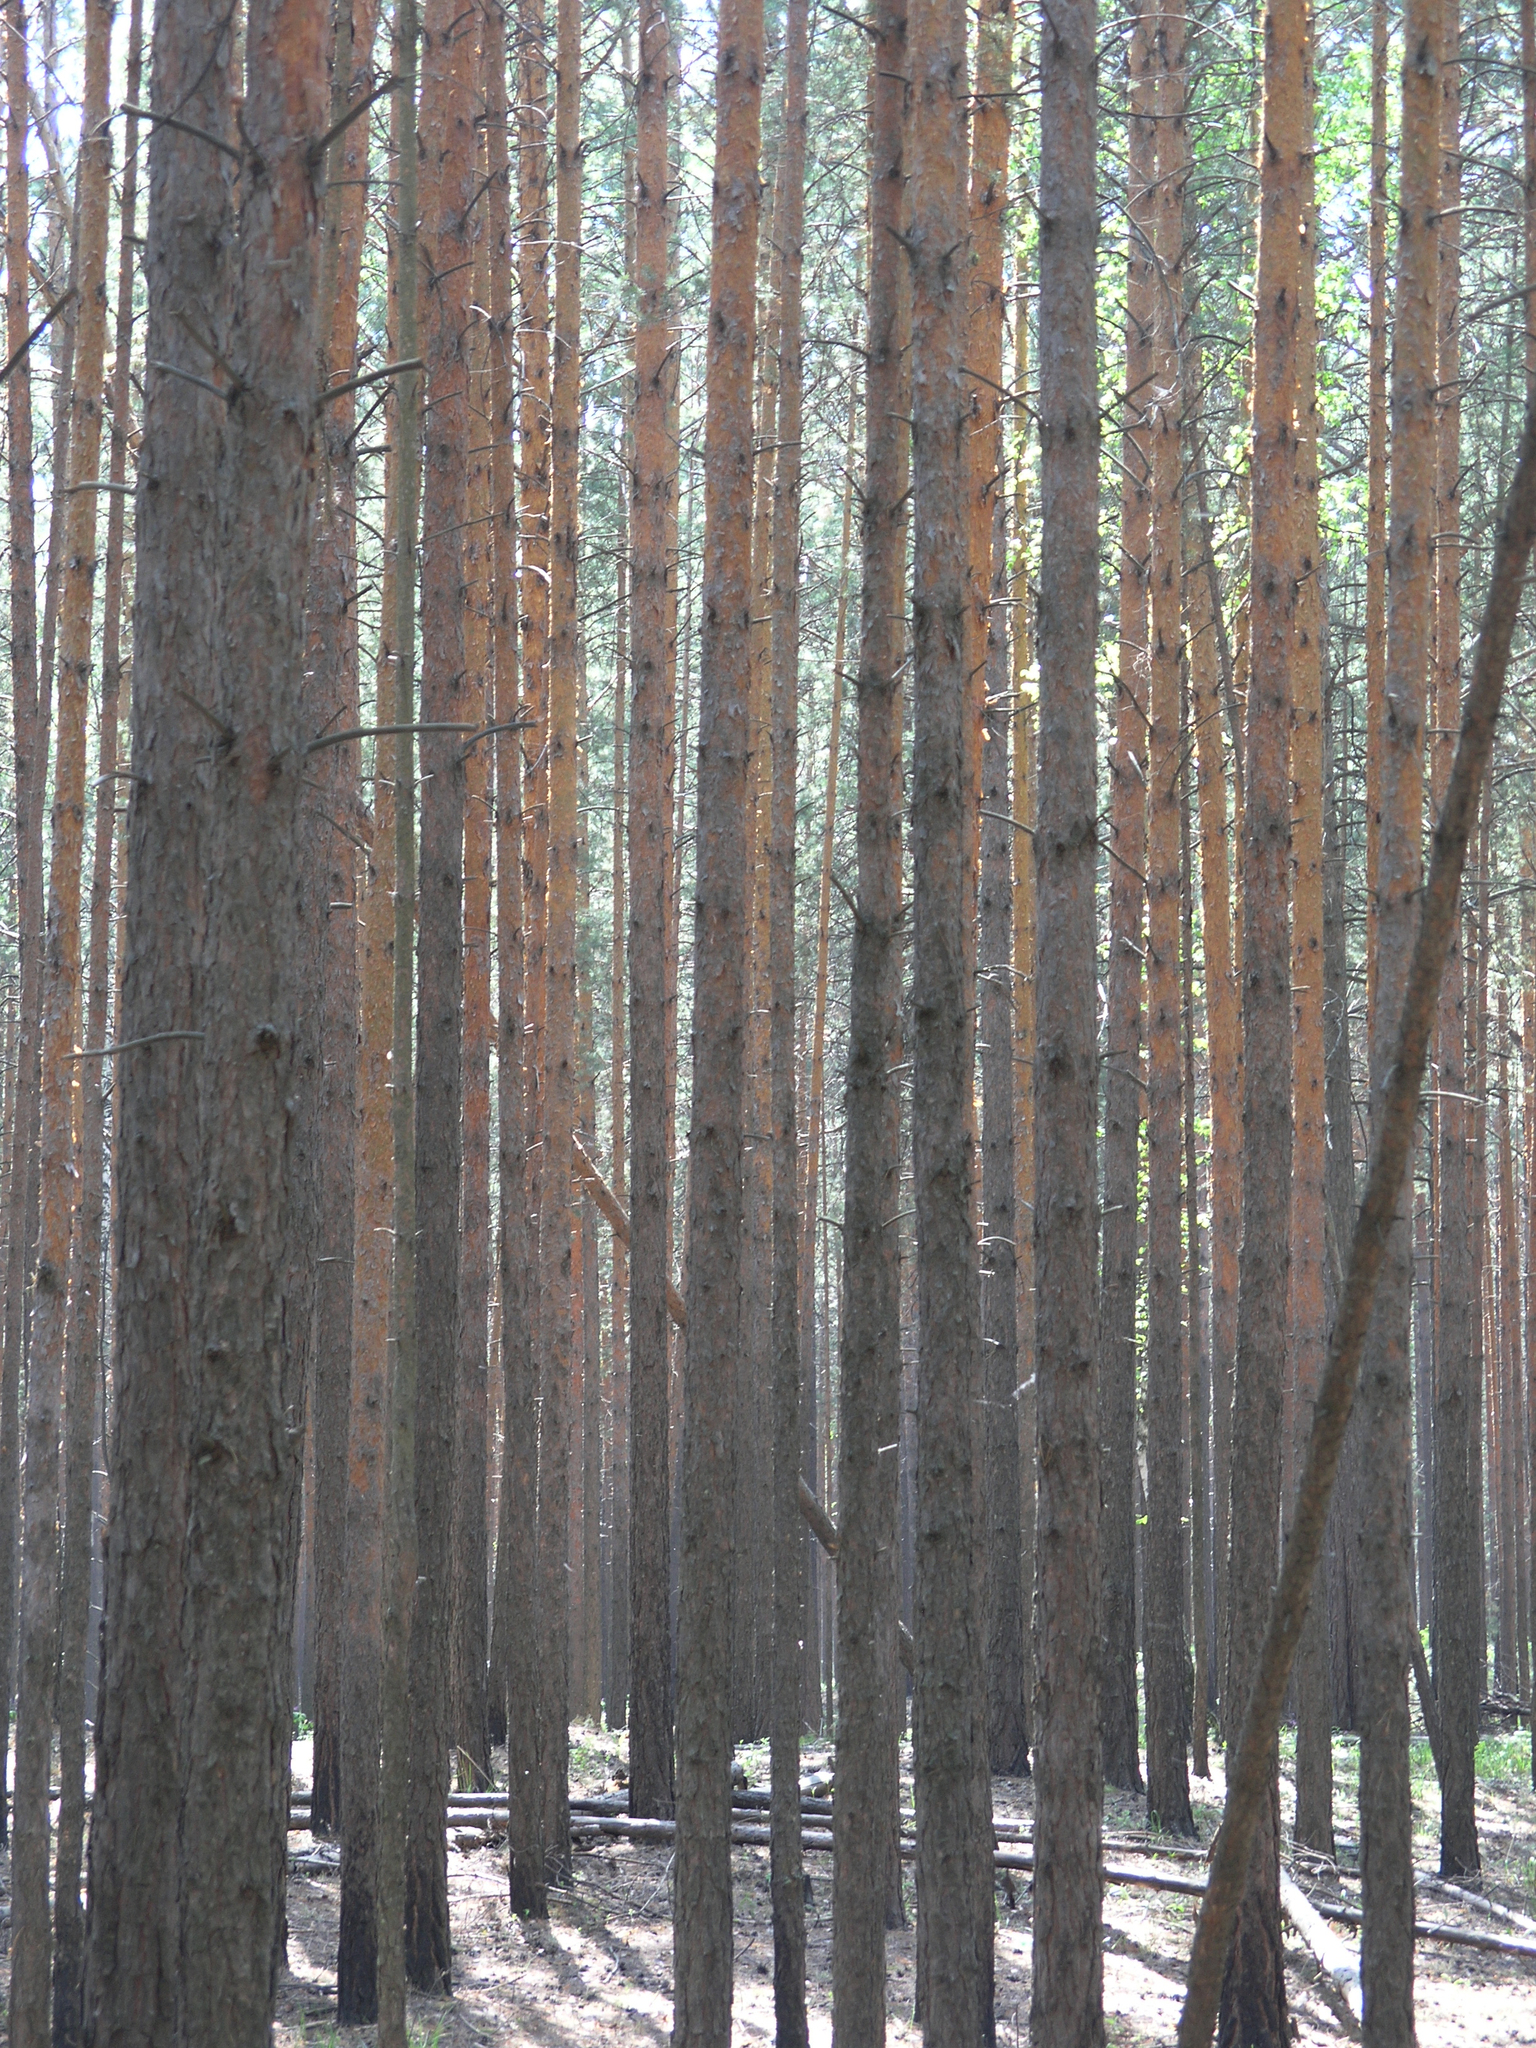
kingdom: Plantae
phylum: Tracheophyta
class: Pinopsida
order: Pinales
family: Pinaceae
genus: Pinus
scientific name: Pinus sylvestris
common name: Scots pine
